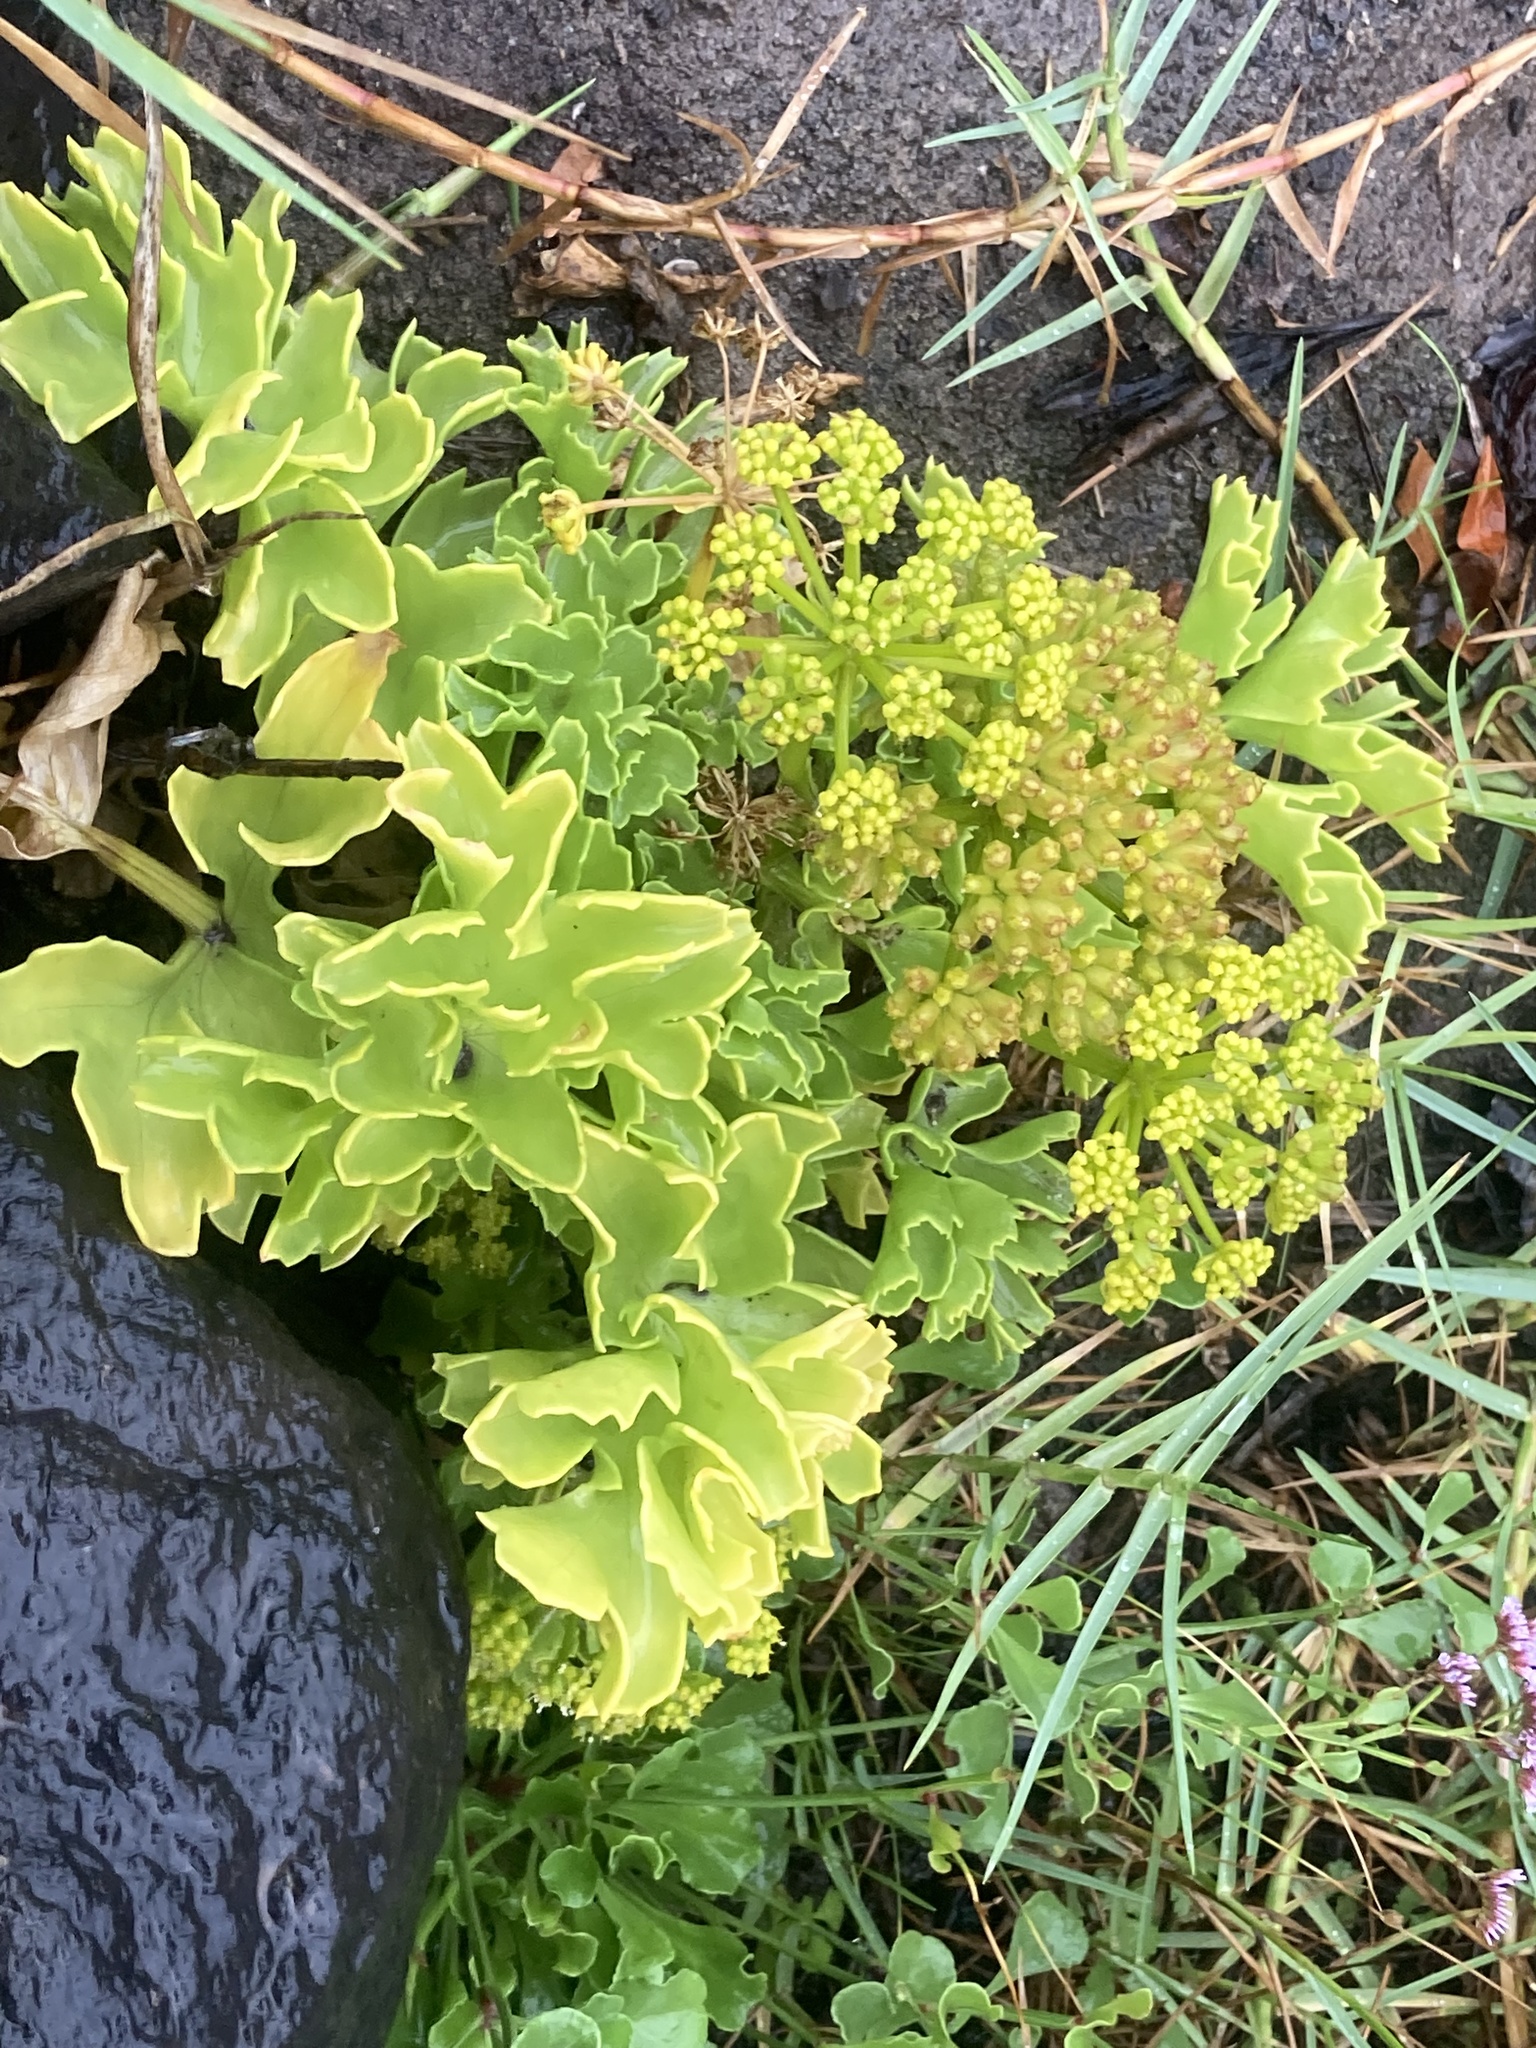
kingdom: Plantae
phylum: Tracheophyta
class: Magnoliopsida
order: Apiales
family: Apiaceae
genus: Astydamia
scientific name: Astydamia latifolia
